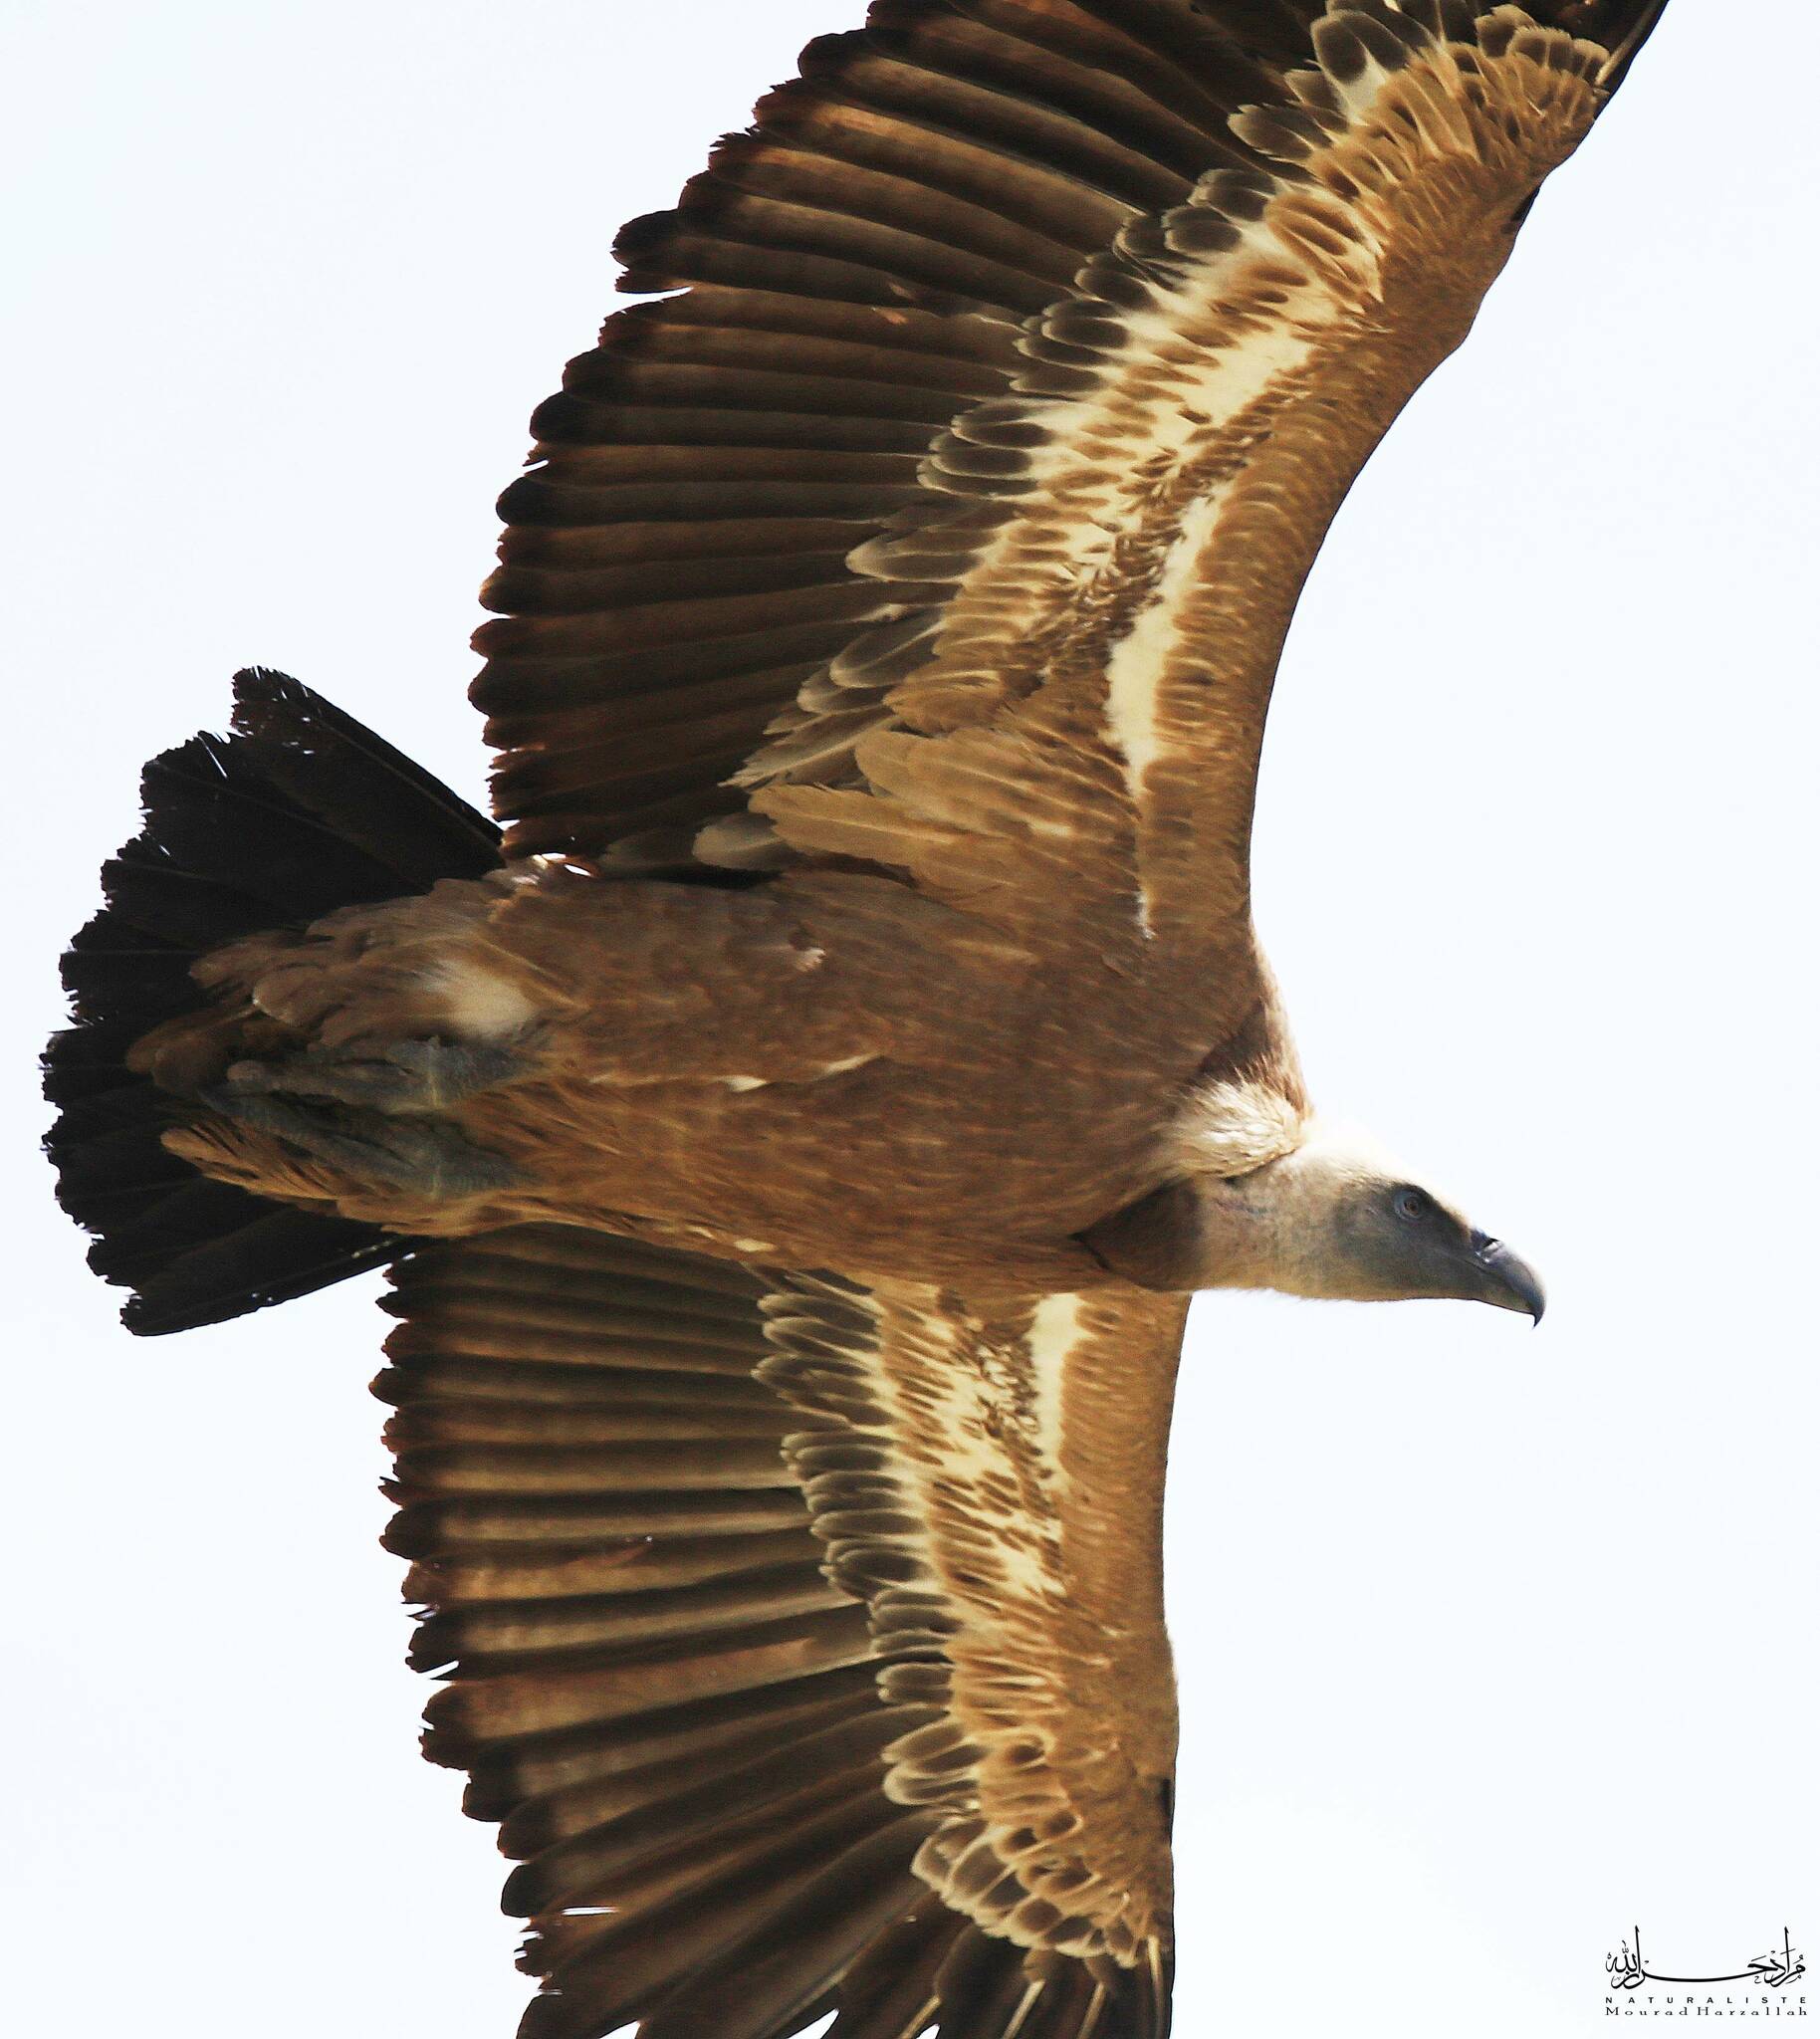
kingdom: Animalia
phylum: Chordata
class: Aves
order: Accipitriformes
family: Accipitridae
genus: Gyps
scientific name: Gyps fulvus
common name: Griffon vulture
